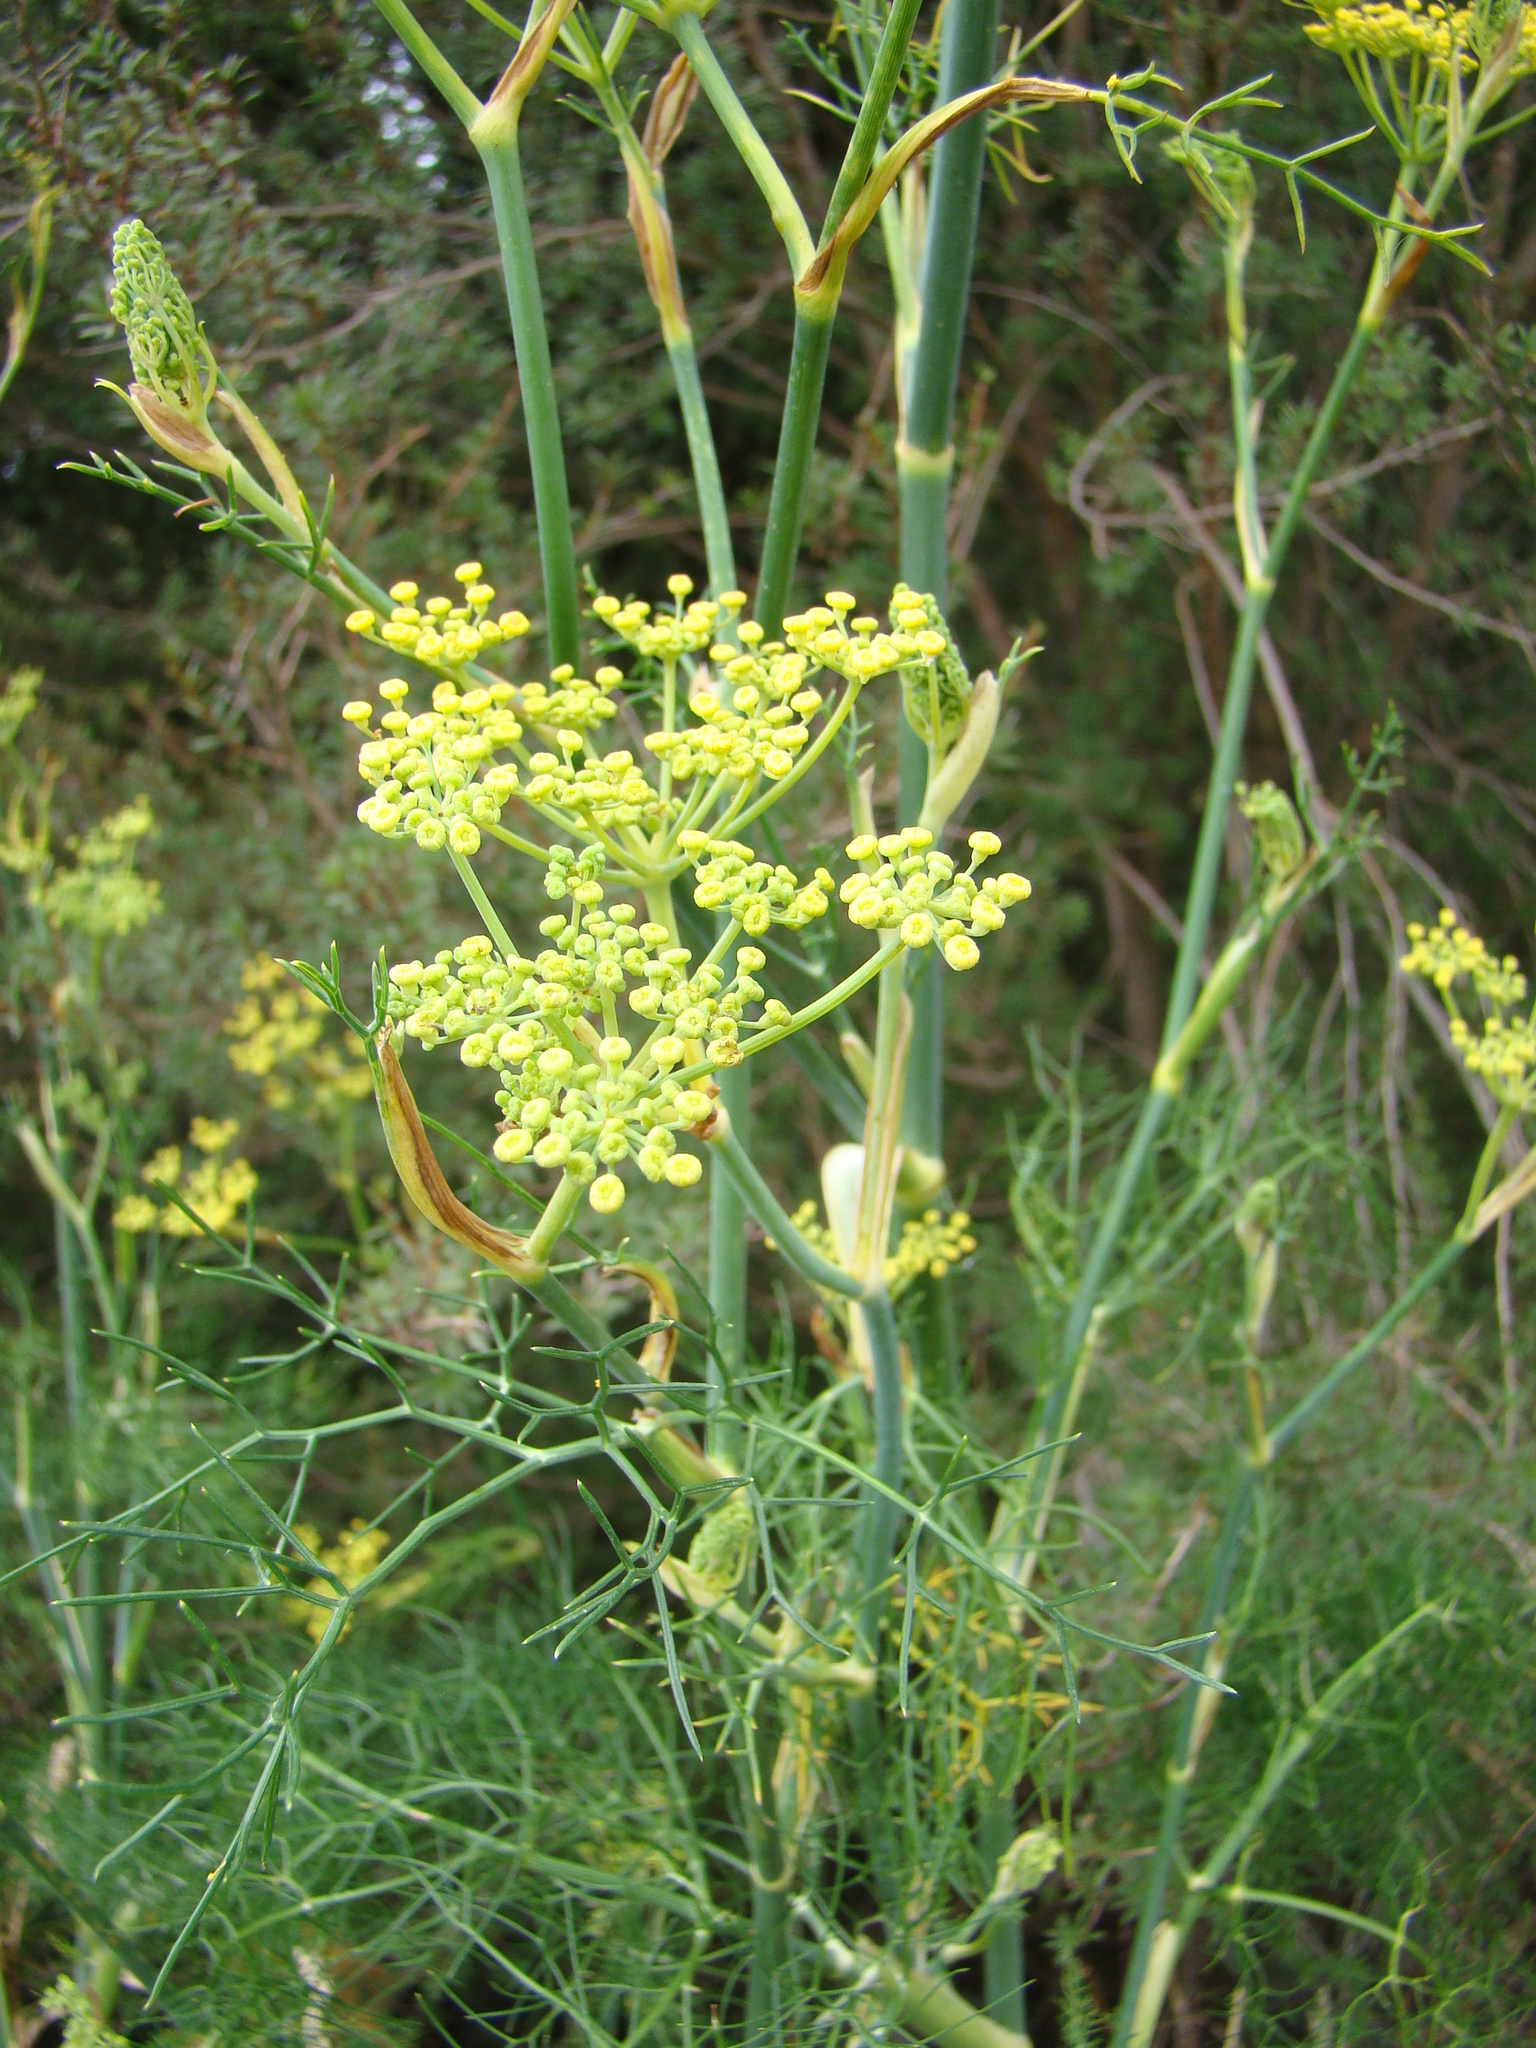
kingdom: Plantae
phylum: Tracheophyta
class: Magnoliopsida
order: Apiales
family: Apiaceae
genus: Foeniculum
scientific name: Foeniculum vulgare
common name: Fennel
